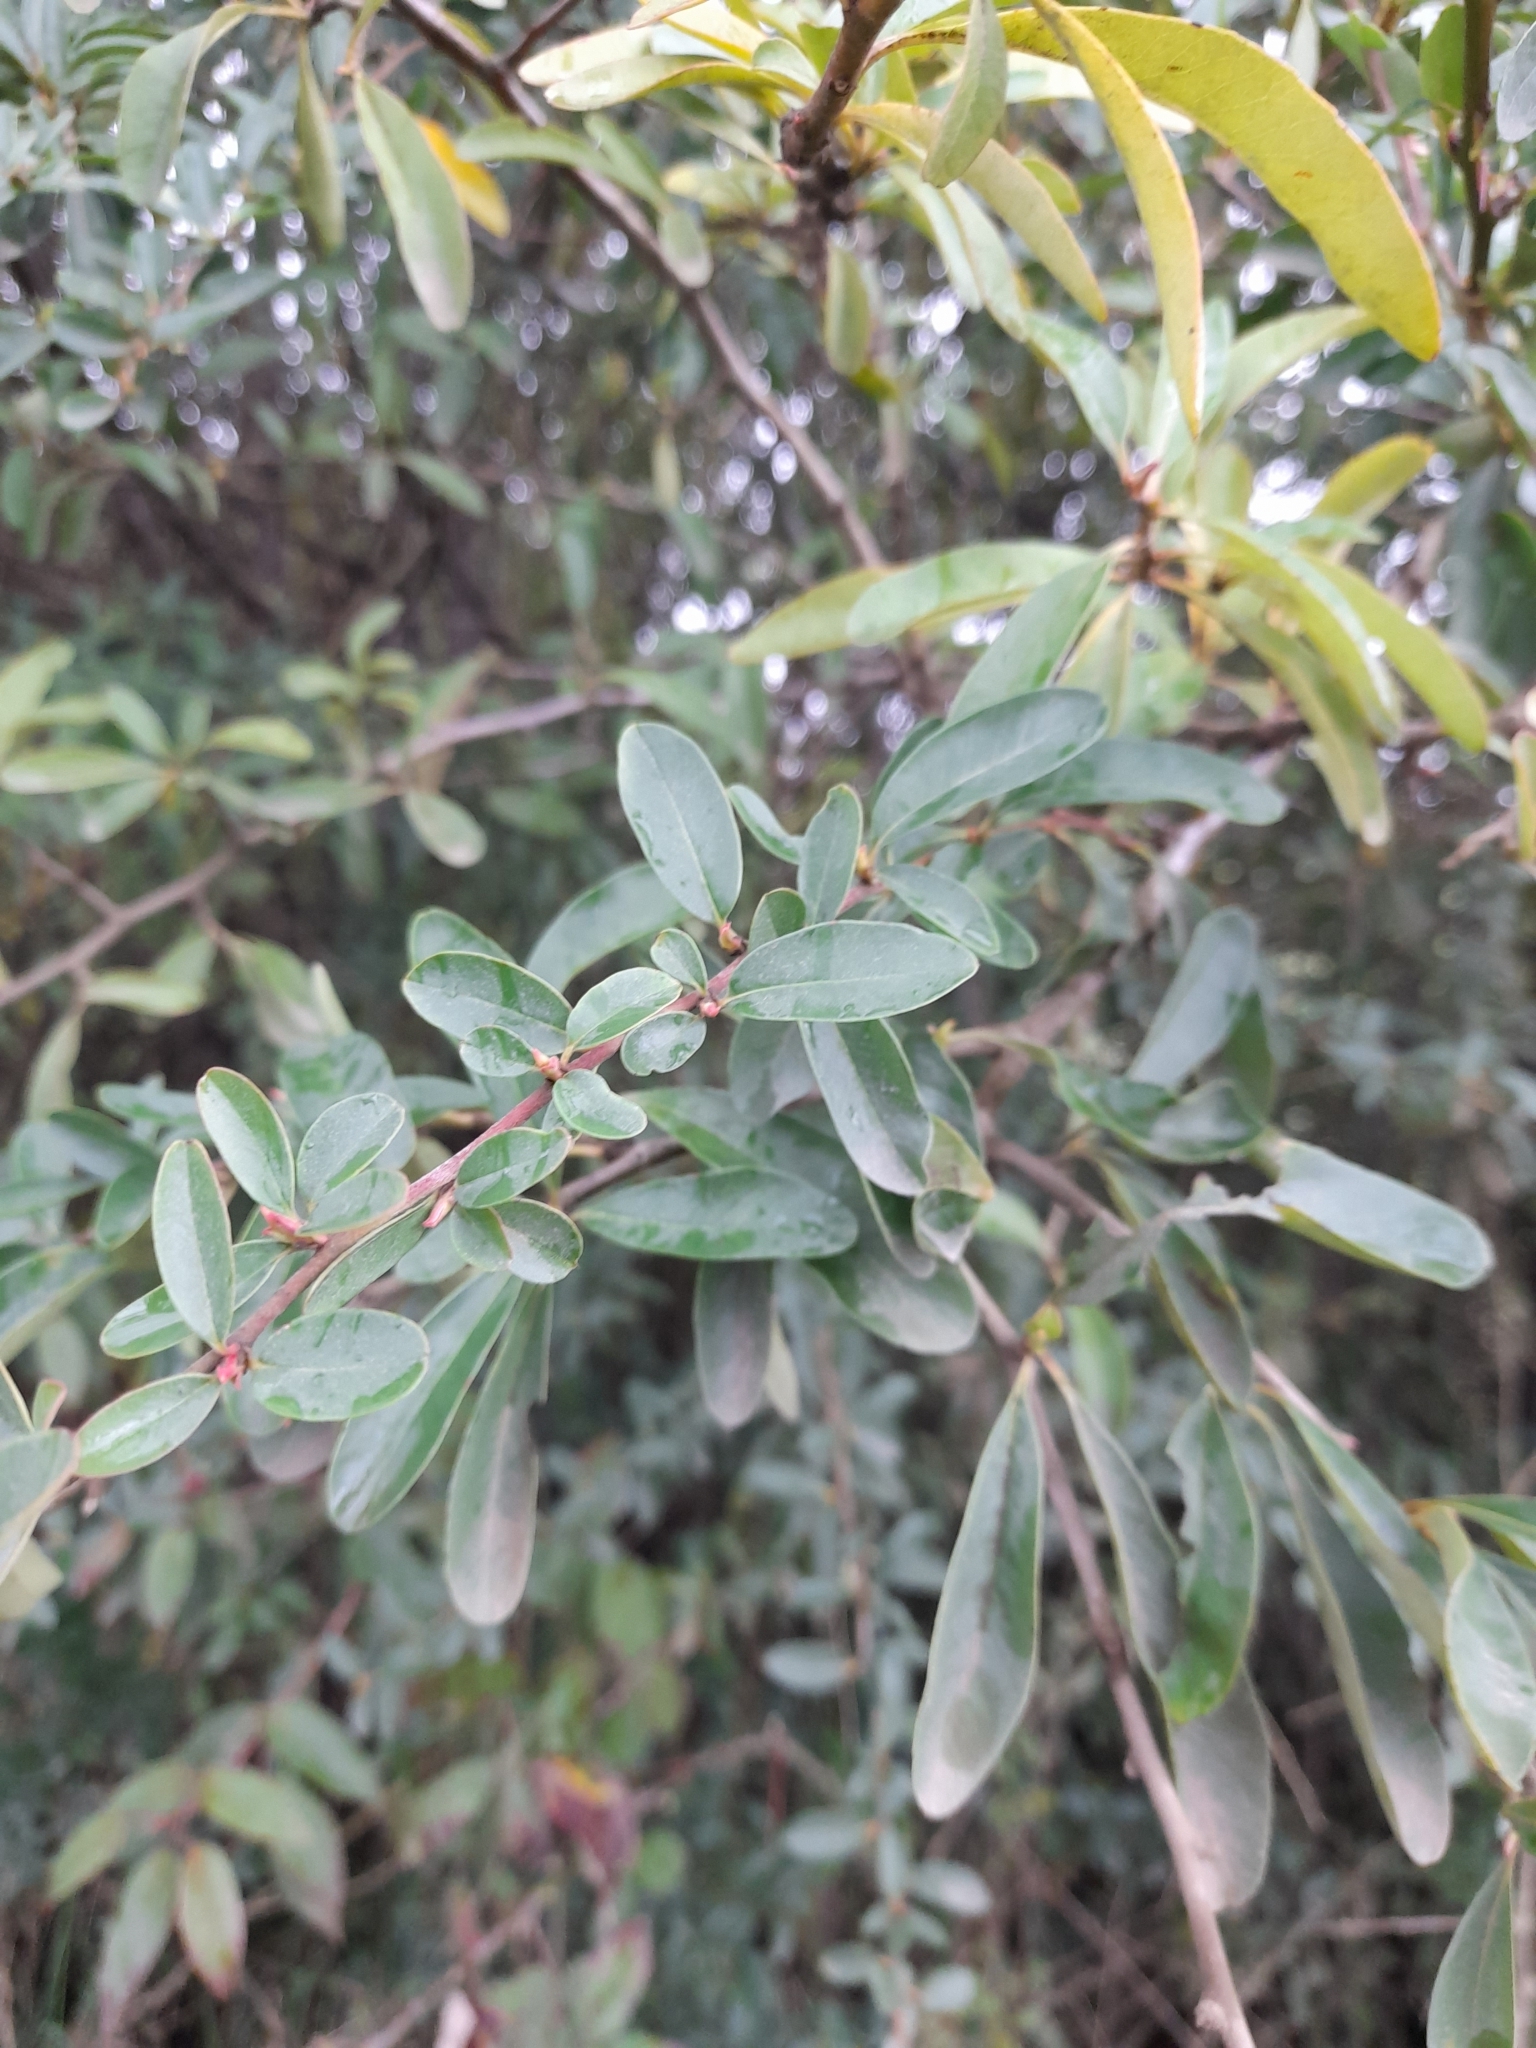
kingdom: Plantae
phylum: Tracheophyta
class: Magnoliopsida
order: Sapindales
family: Anacardiaceae
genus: Schinus
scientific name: Schinus polygama
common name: Hardee peppertree
